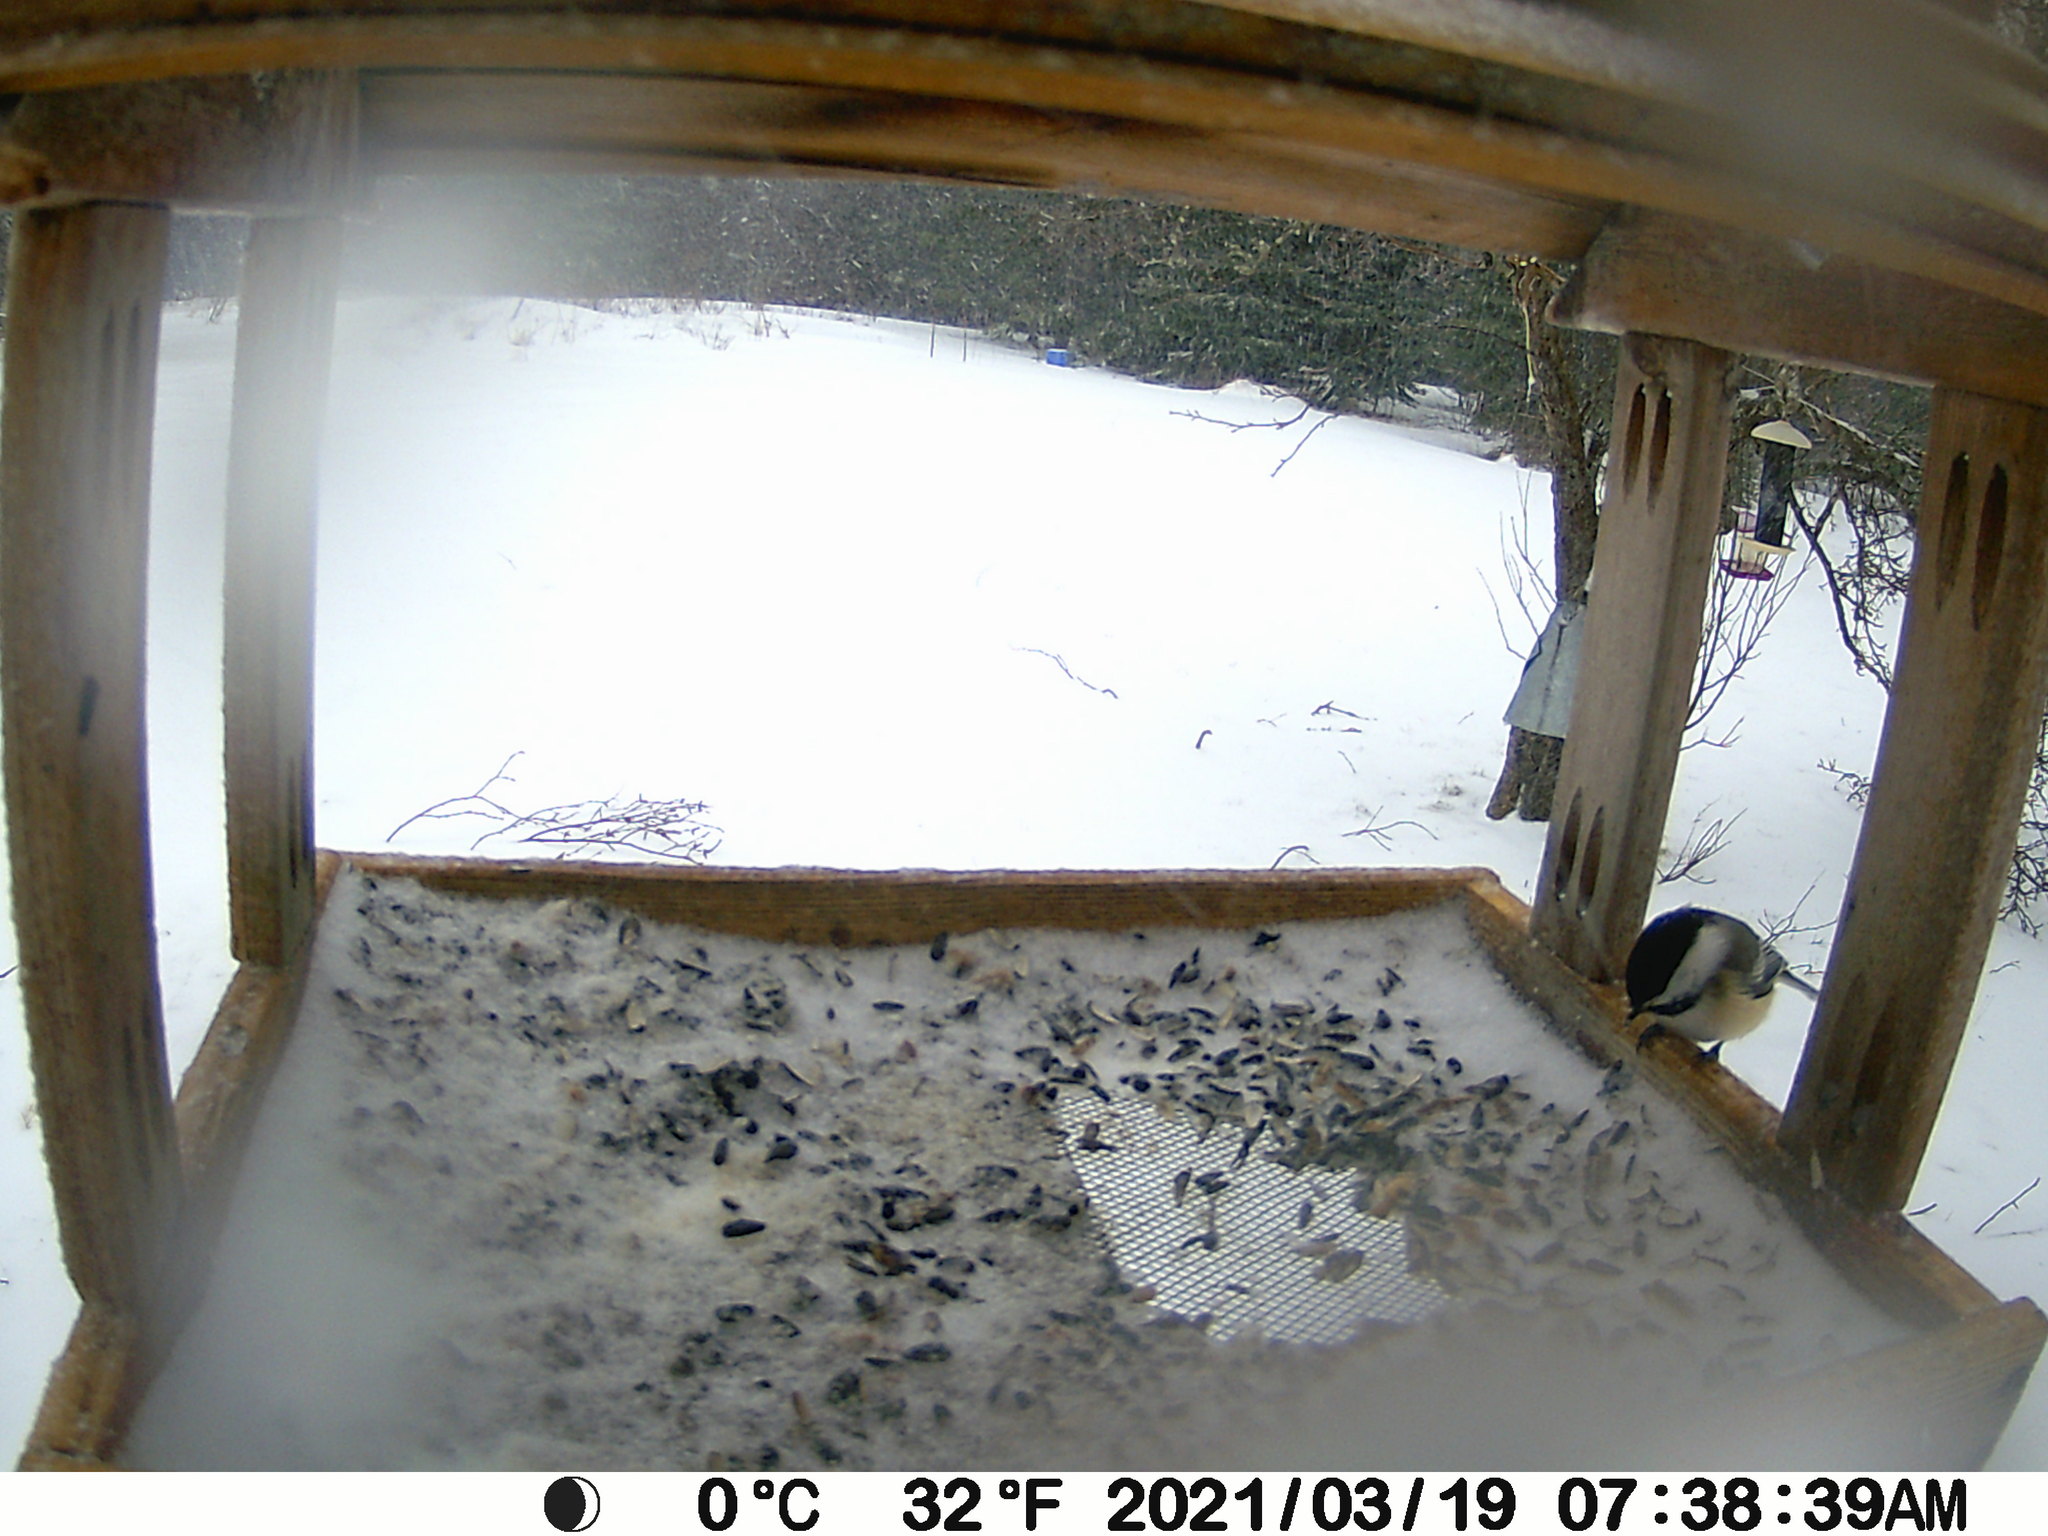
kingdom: Animalia
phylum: Chordata
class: Aves
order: Passeriformes
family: Paridae
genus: Poecile
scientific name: Poecile atricapillus
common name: Black-capped chickadee
